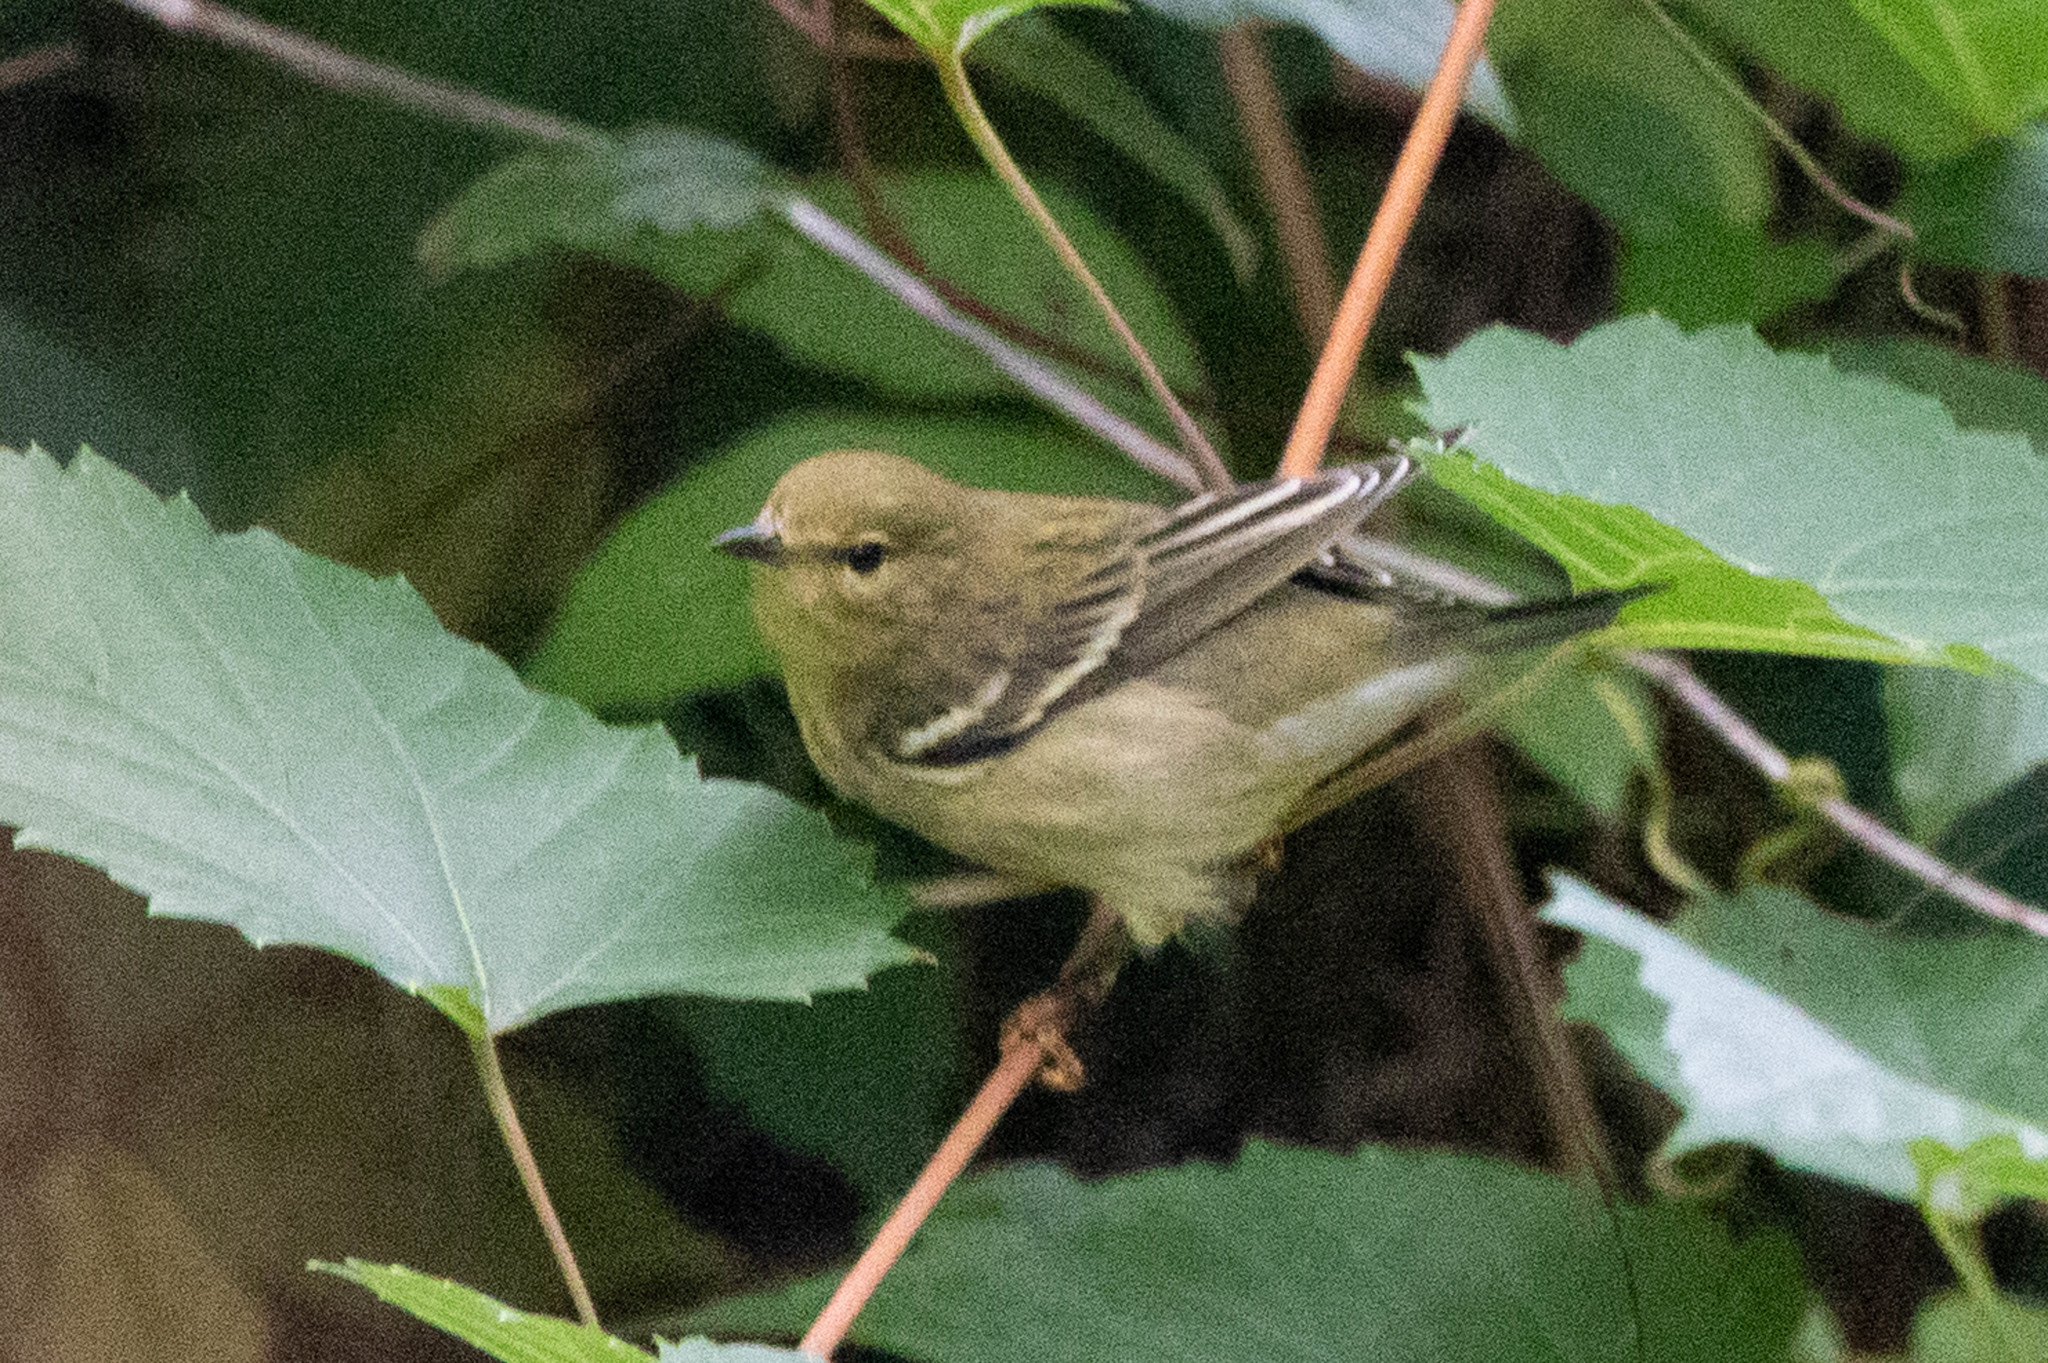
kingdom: Animalia
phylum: Chordata
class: Aves
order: Passeriformes
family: Parulidae
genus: Setophaga
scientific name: Setophaga striata
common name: Blackpoll warbler
